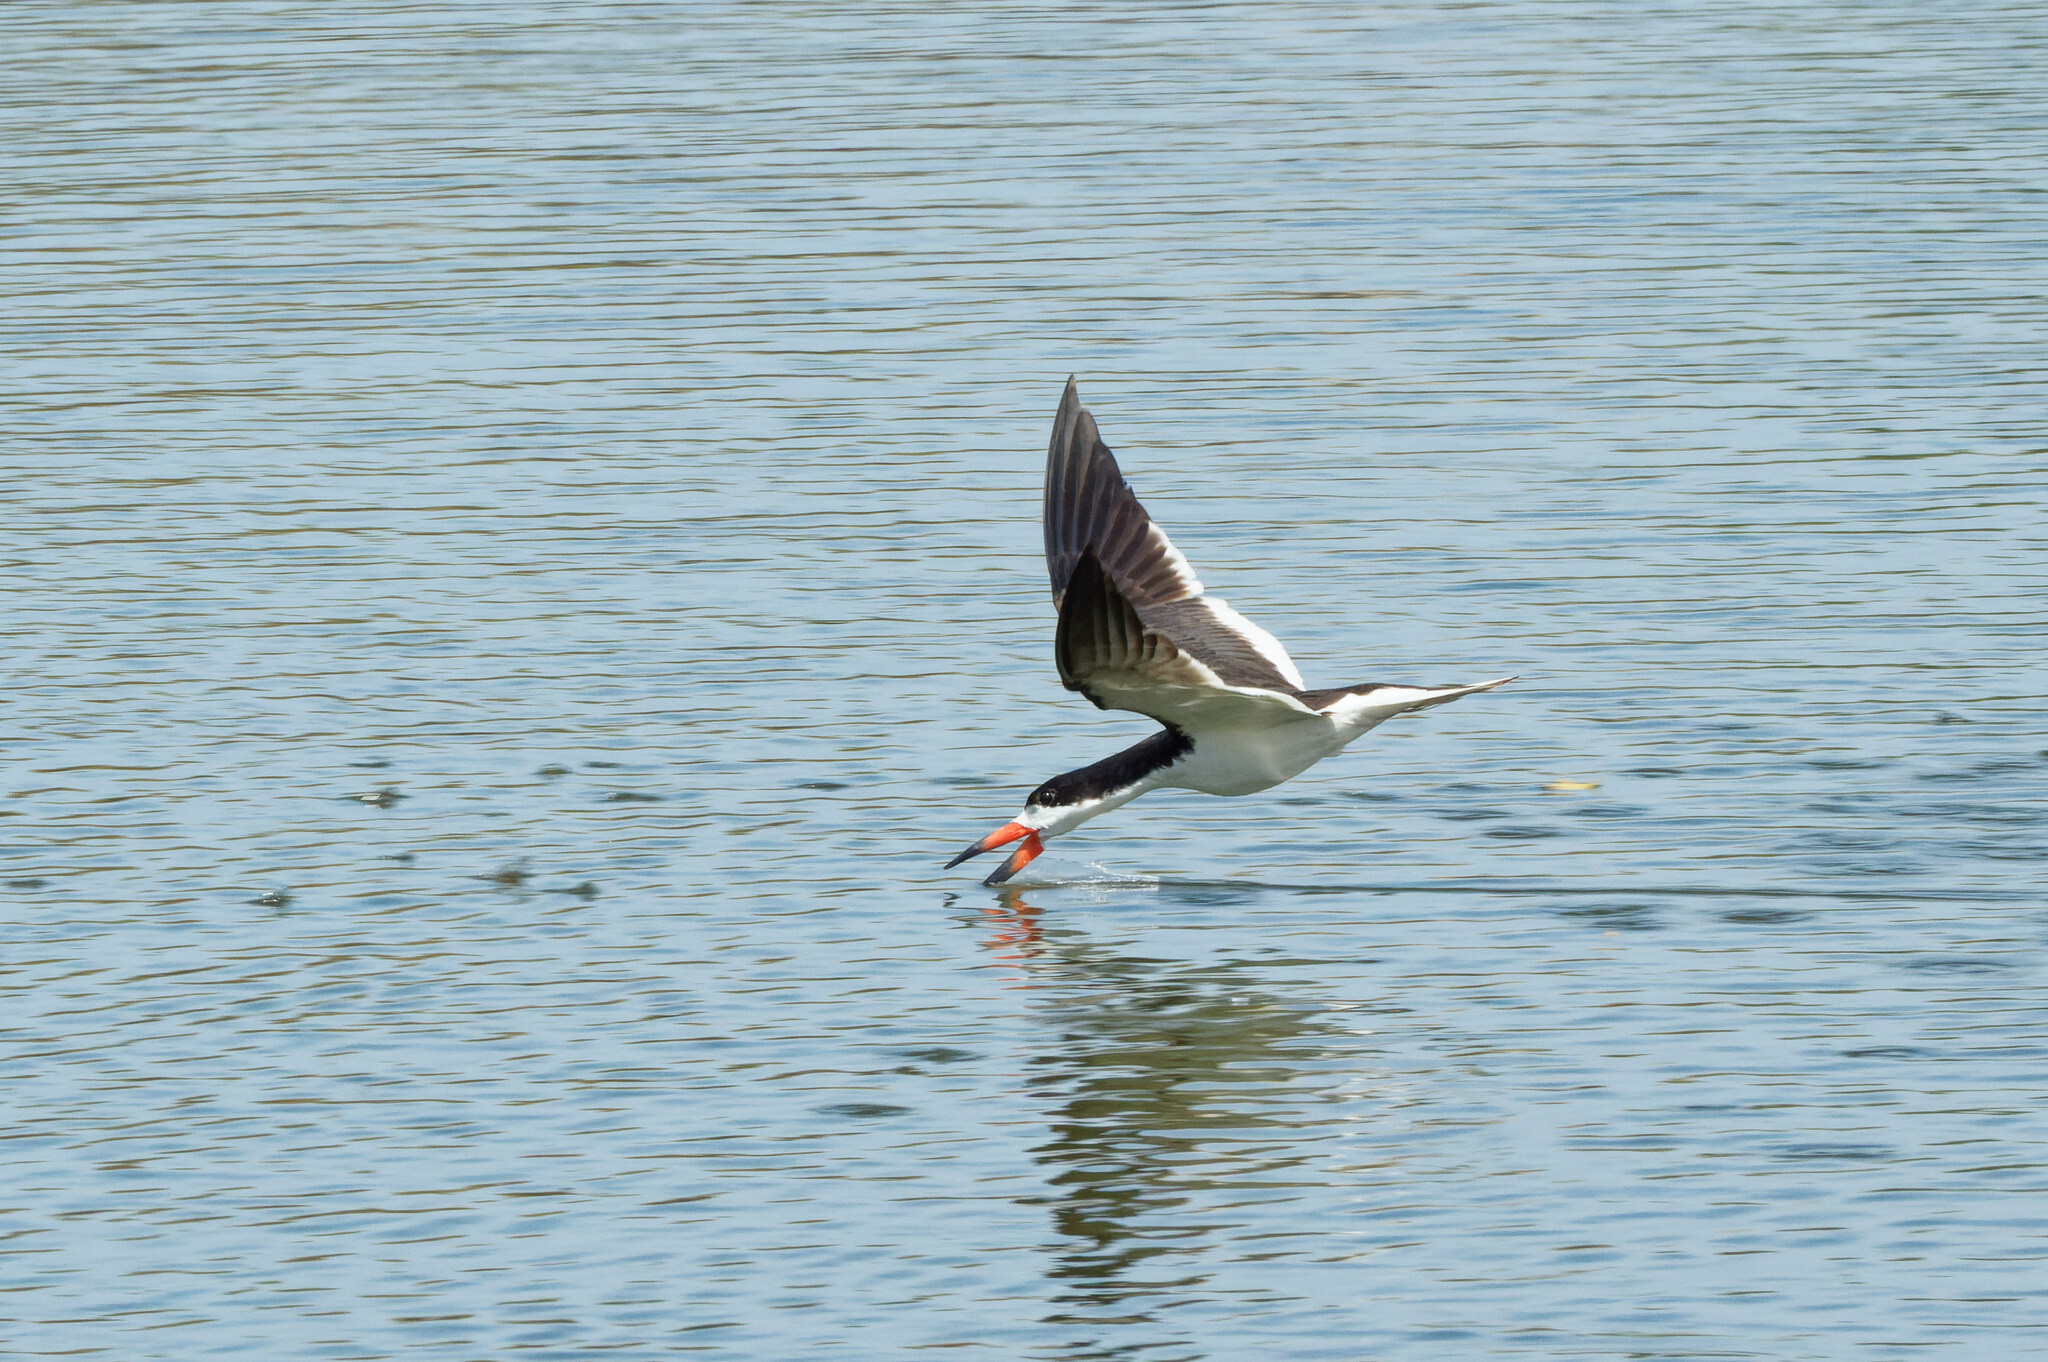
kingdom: Animalia
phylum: Chordata
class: Aves
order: Charadriiformes
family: Laridae
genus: Rynchops
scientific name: Rynchops niger
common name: Black skimmer
